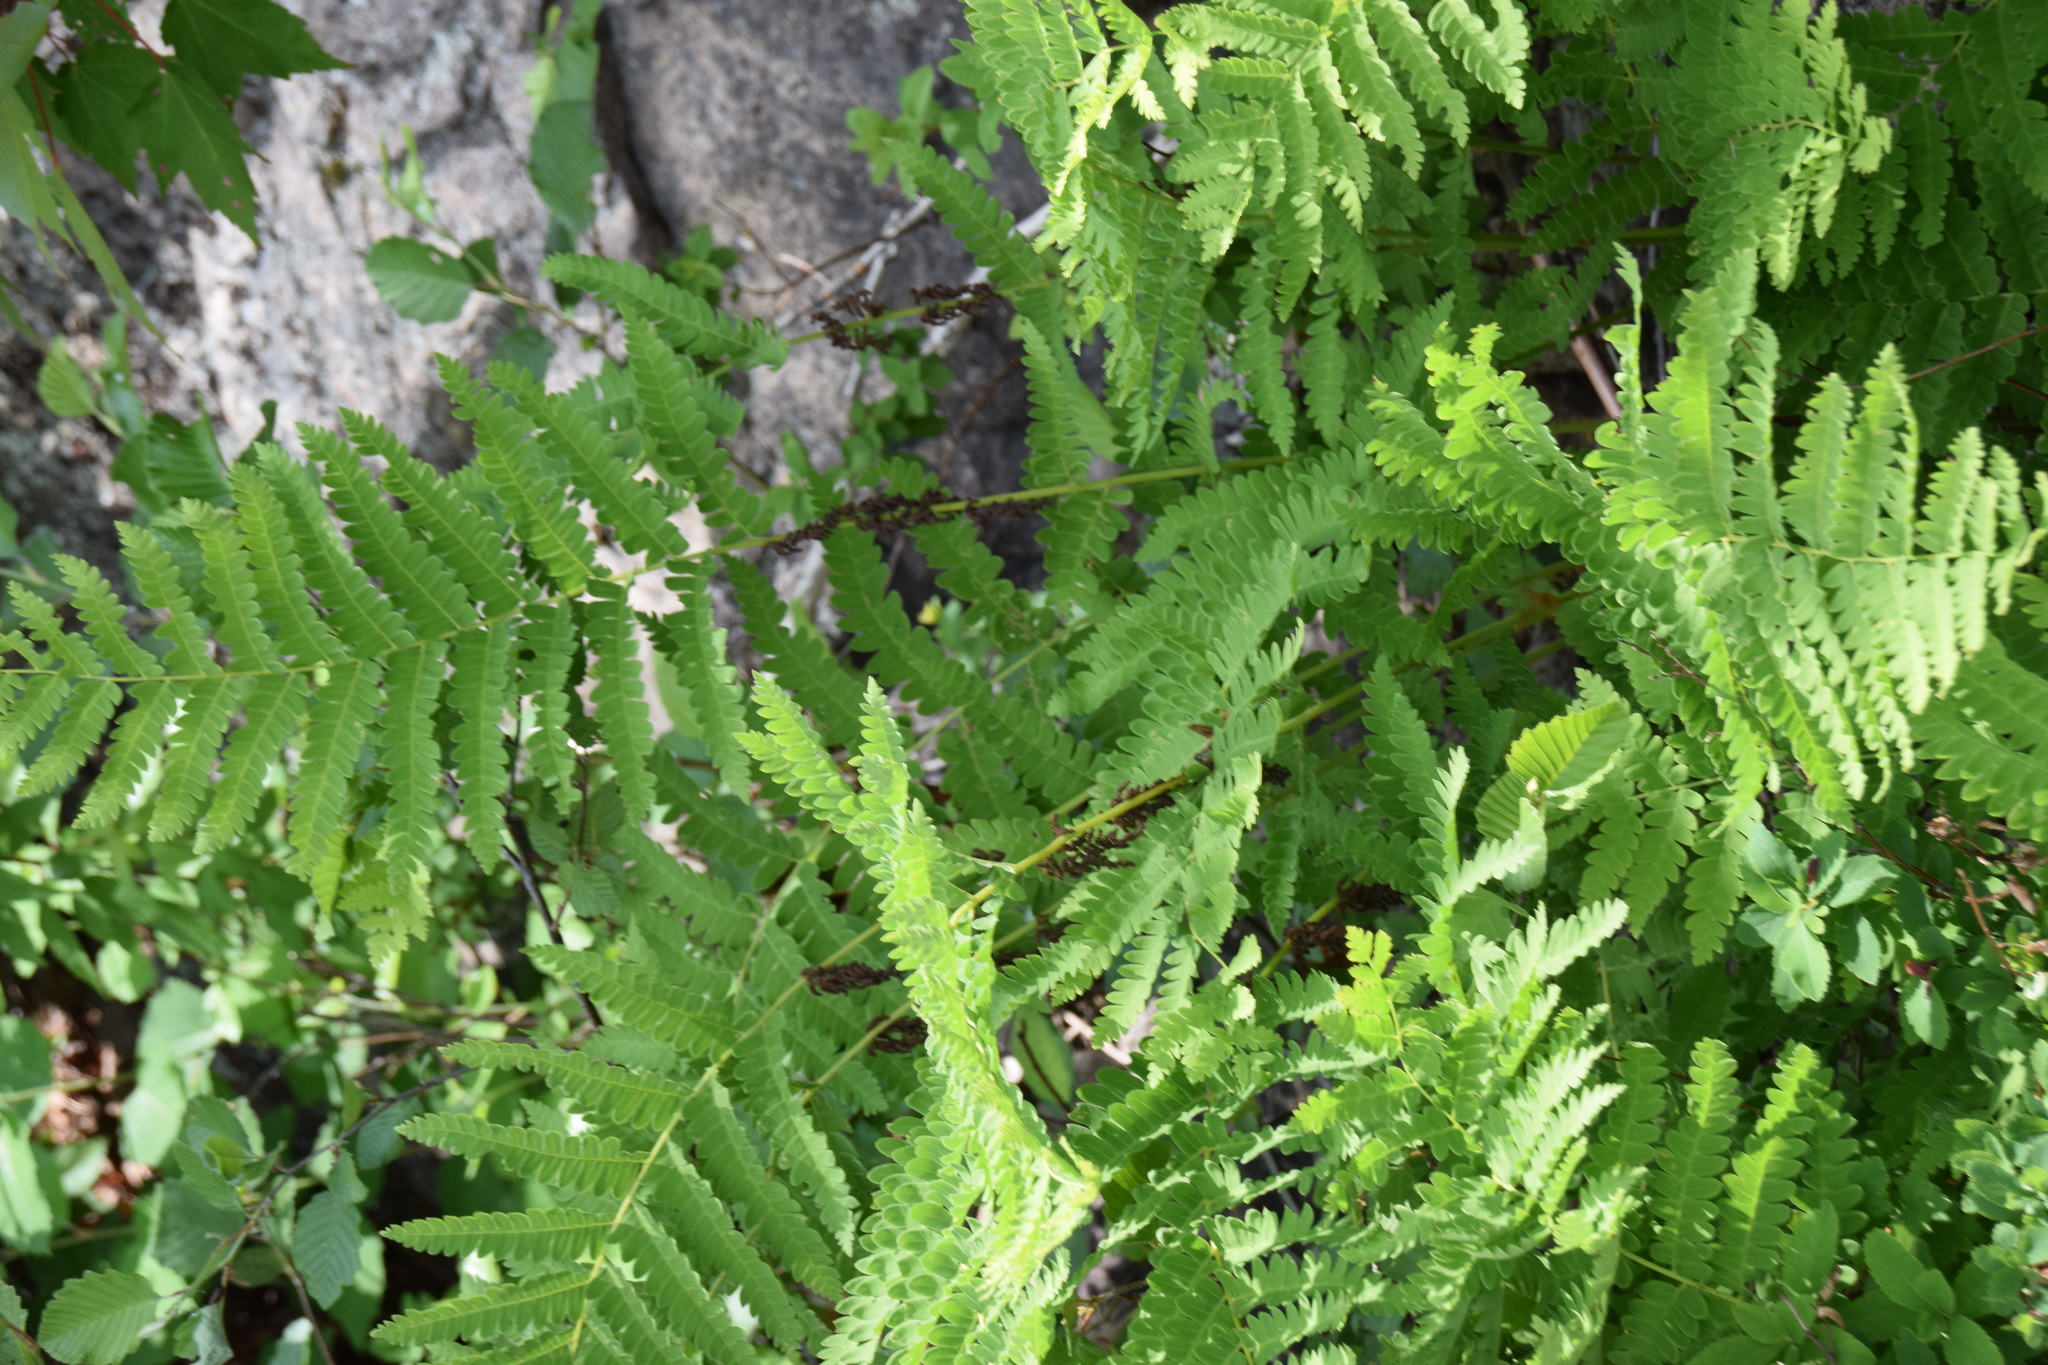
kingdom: Plantae
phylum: Tracheophyta
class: Polypodiopsida
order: Osmundales
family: Osmundaceae
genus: Claytosmunda
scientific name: Claytosmunda claytoniana
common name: Clayton's fern
